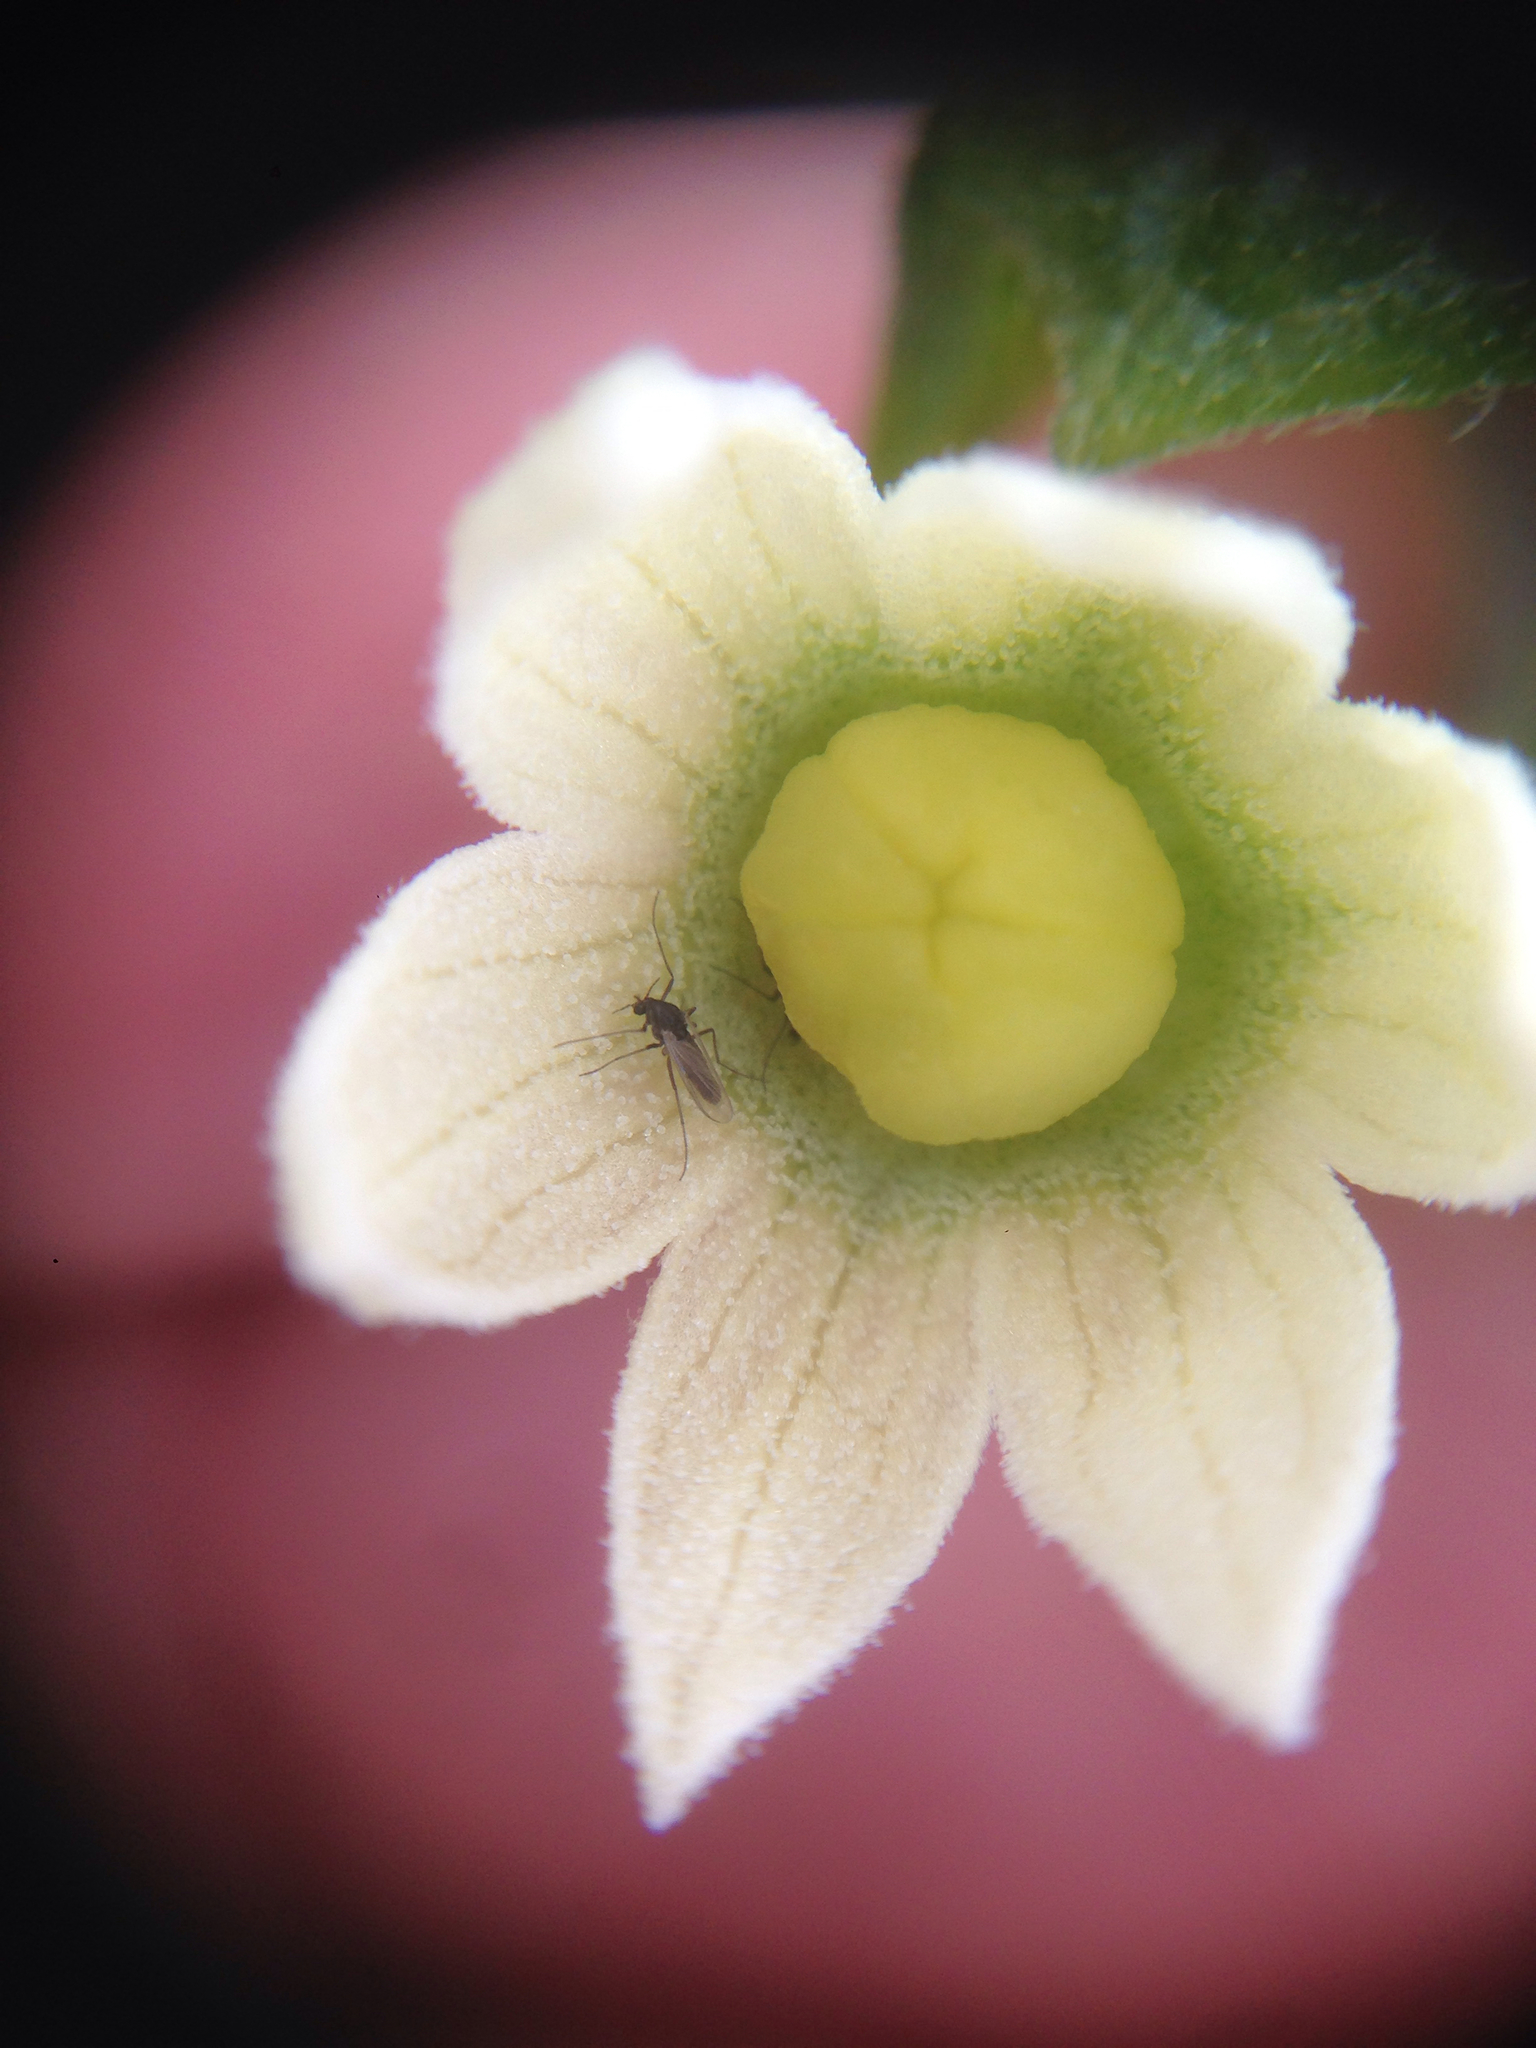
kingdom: Plantae
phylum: Tracheophyta
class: Magnoliopsida
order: Cucurbitales
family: Cucurbitaceae
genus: Marah
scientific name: Marah macrocarpa
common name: Cucamonga manroot
